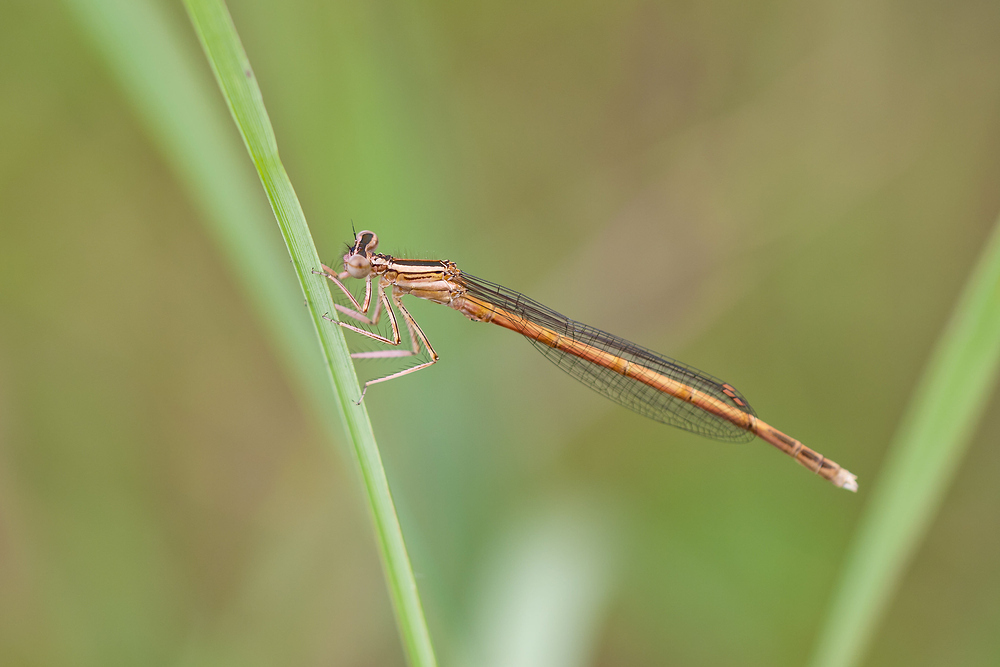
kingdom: Animalia
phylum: Arthropoda
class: Insecta
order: Odonata
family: Platycnemididae
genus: Platycnemis
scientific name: Platycnemis acutipennis
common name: Orange featherleg
